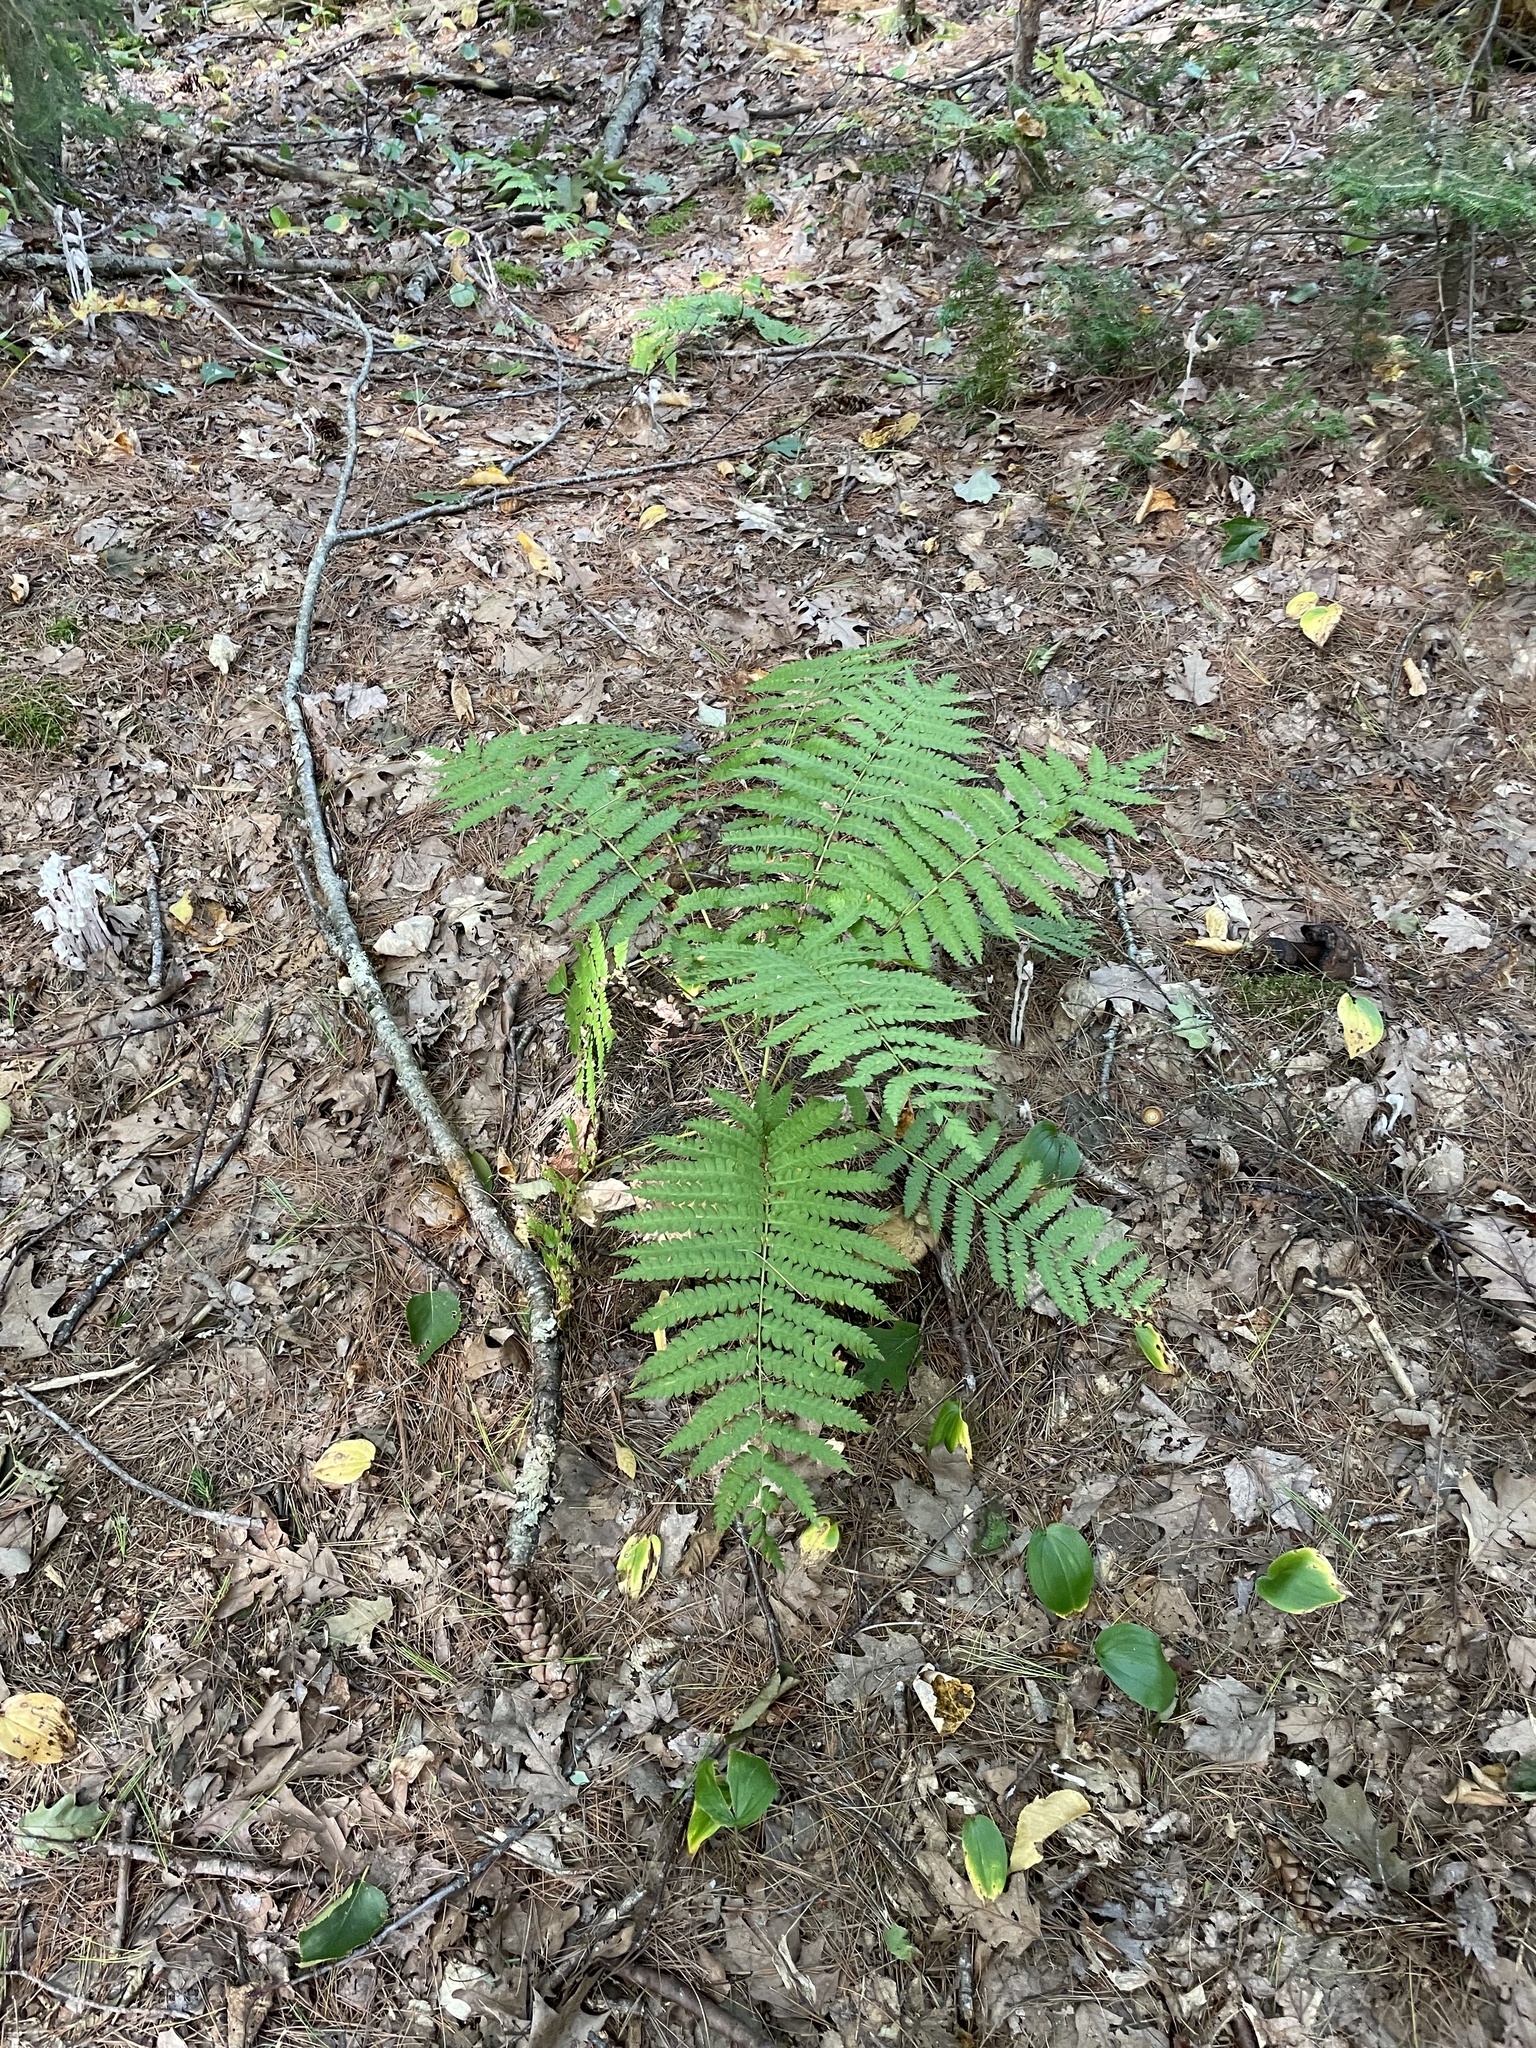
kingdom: Plantae
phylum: Tracheophyta
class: Polypodiopsida
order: Osmundales
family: Osmundaceae
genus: Osmundastrum
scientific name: Osmundastrum cinnamomeum
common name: Cinnamon fern
